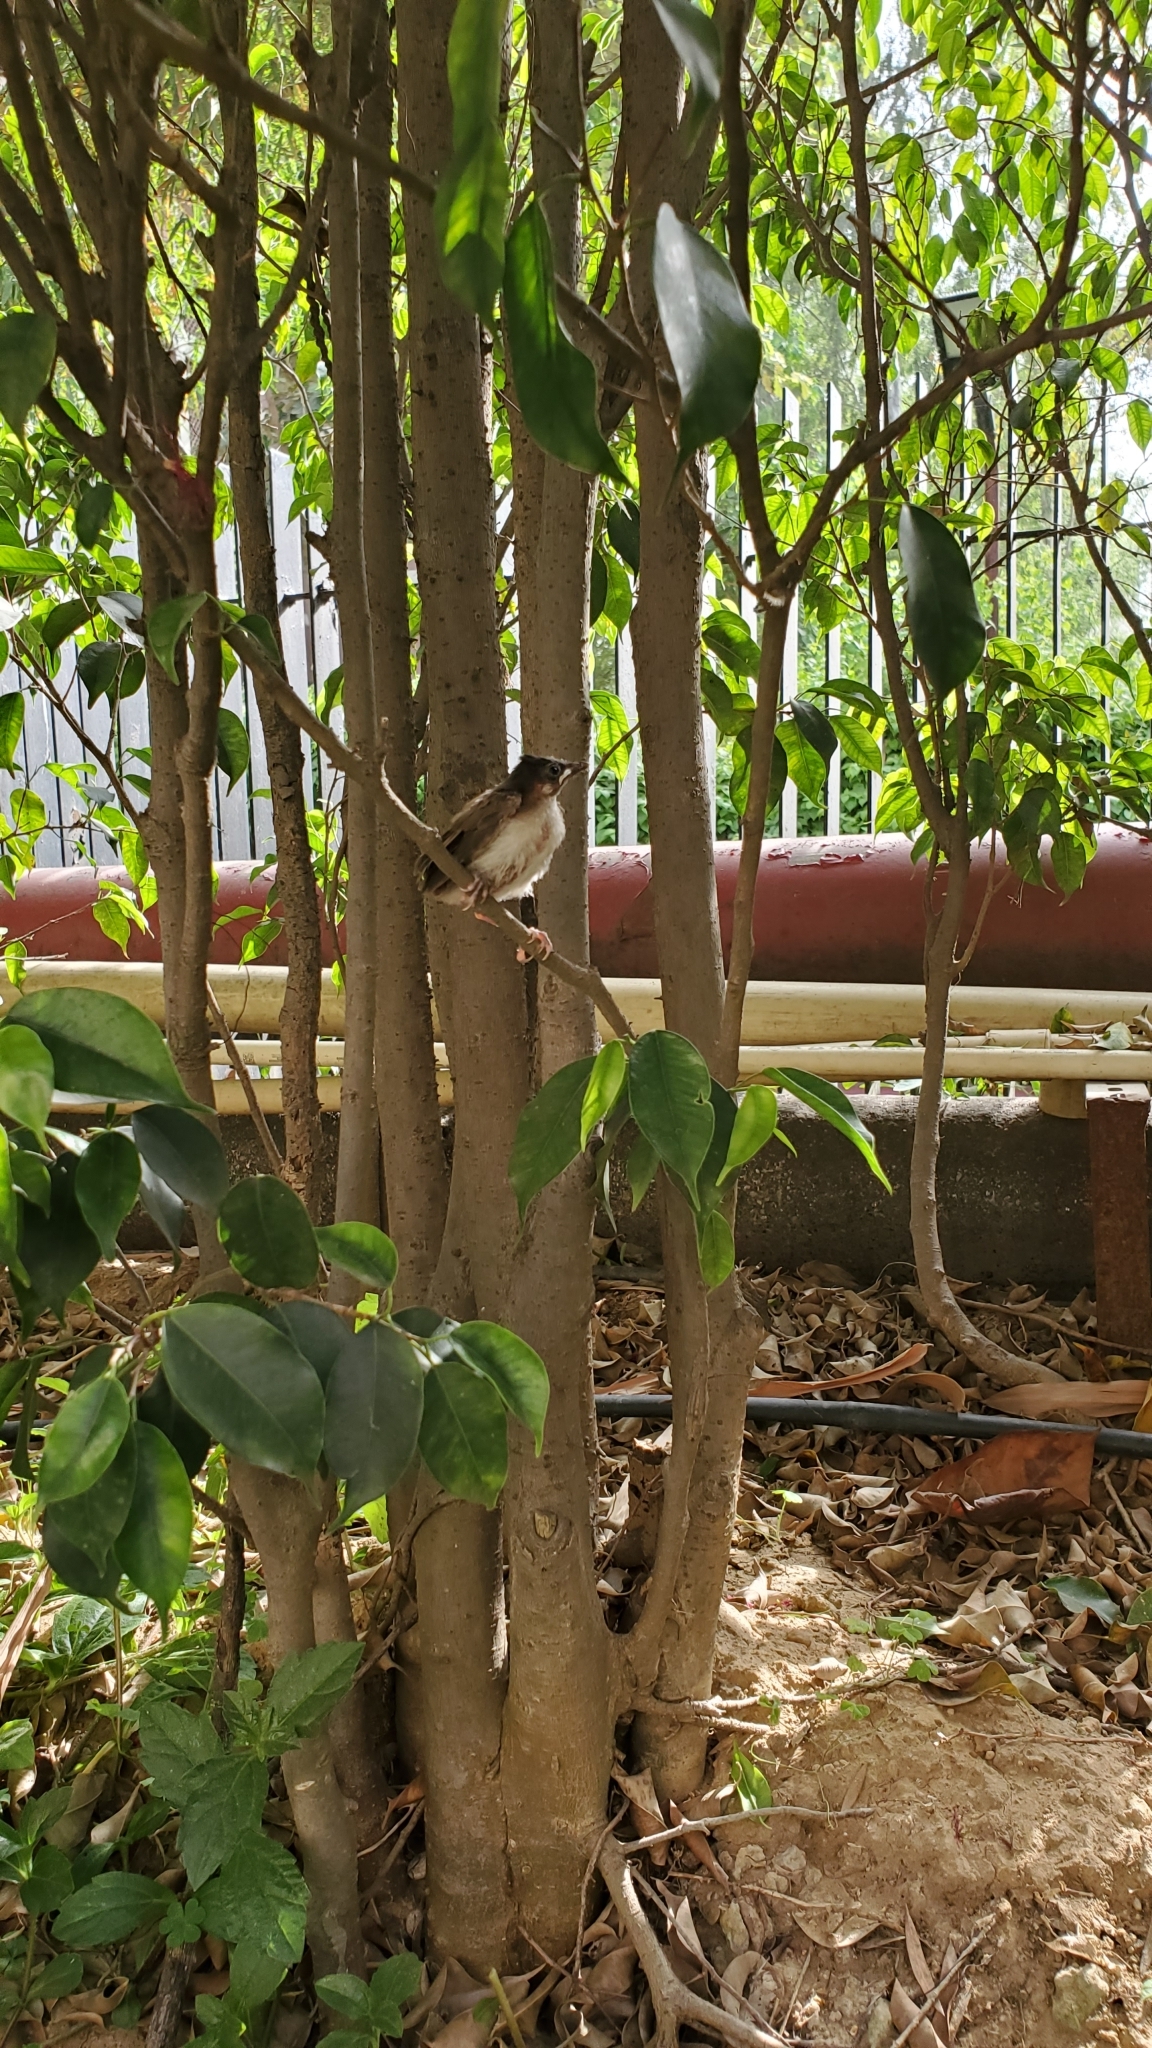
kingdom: Animalia
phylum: Chordata
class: Aves
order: Passeriformes
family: Pycnonotidae
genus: Pycnonotus
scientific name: Pycnonotus jocosus
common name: Red-whiskered bulbul
